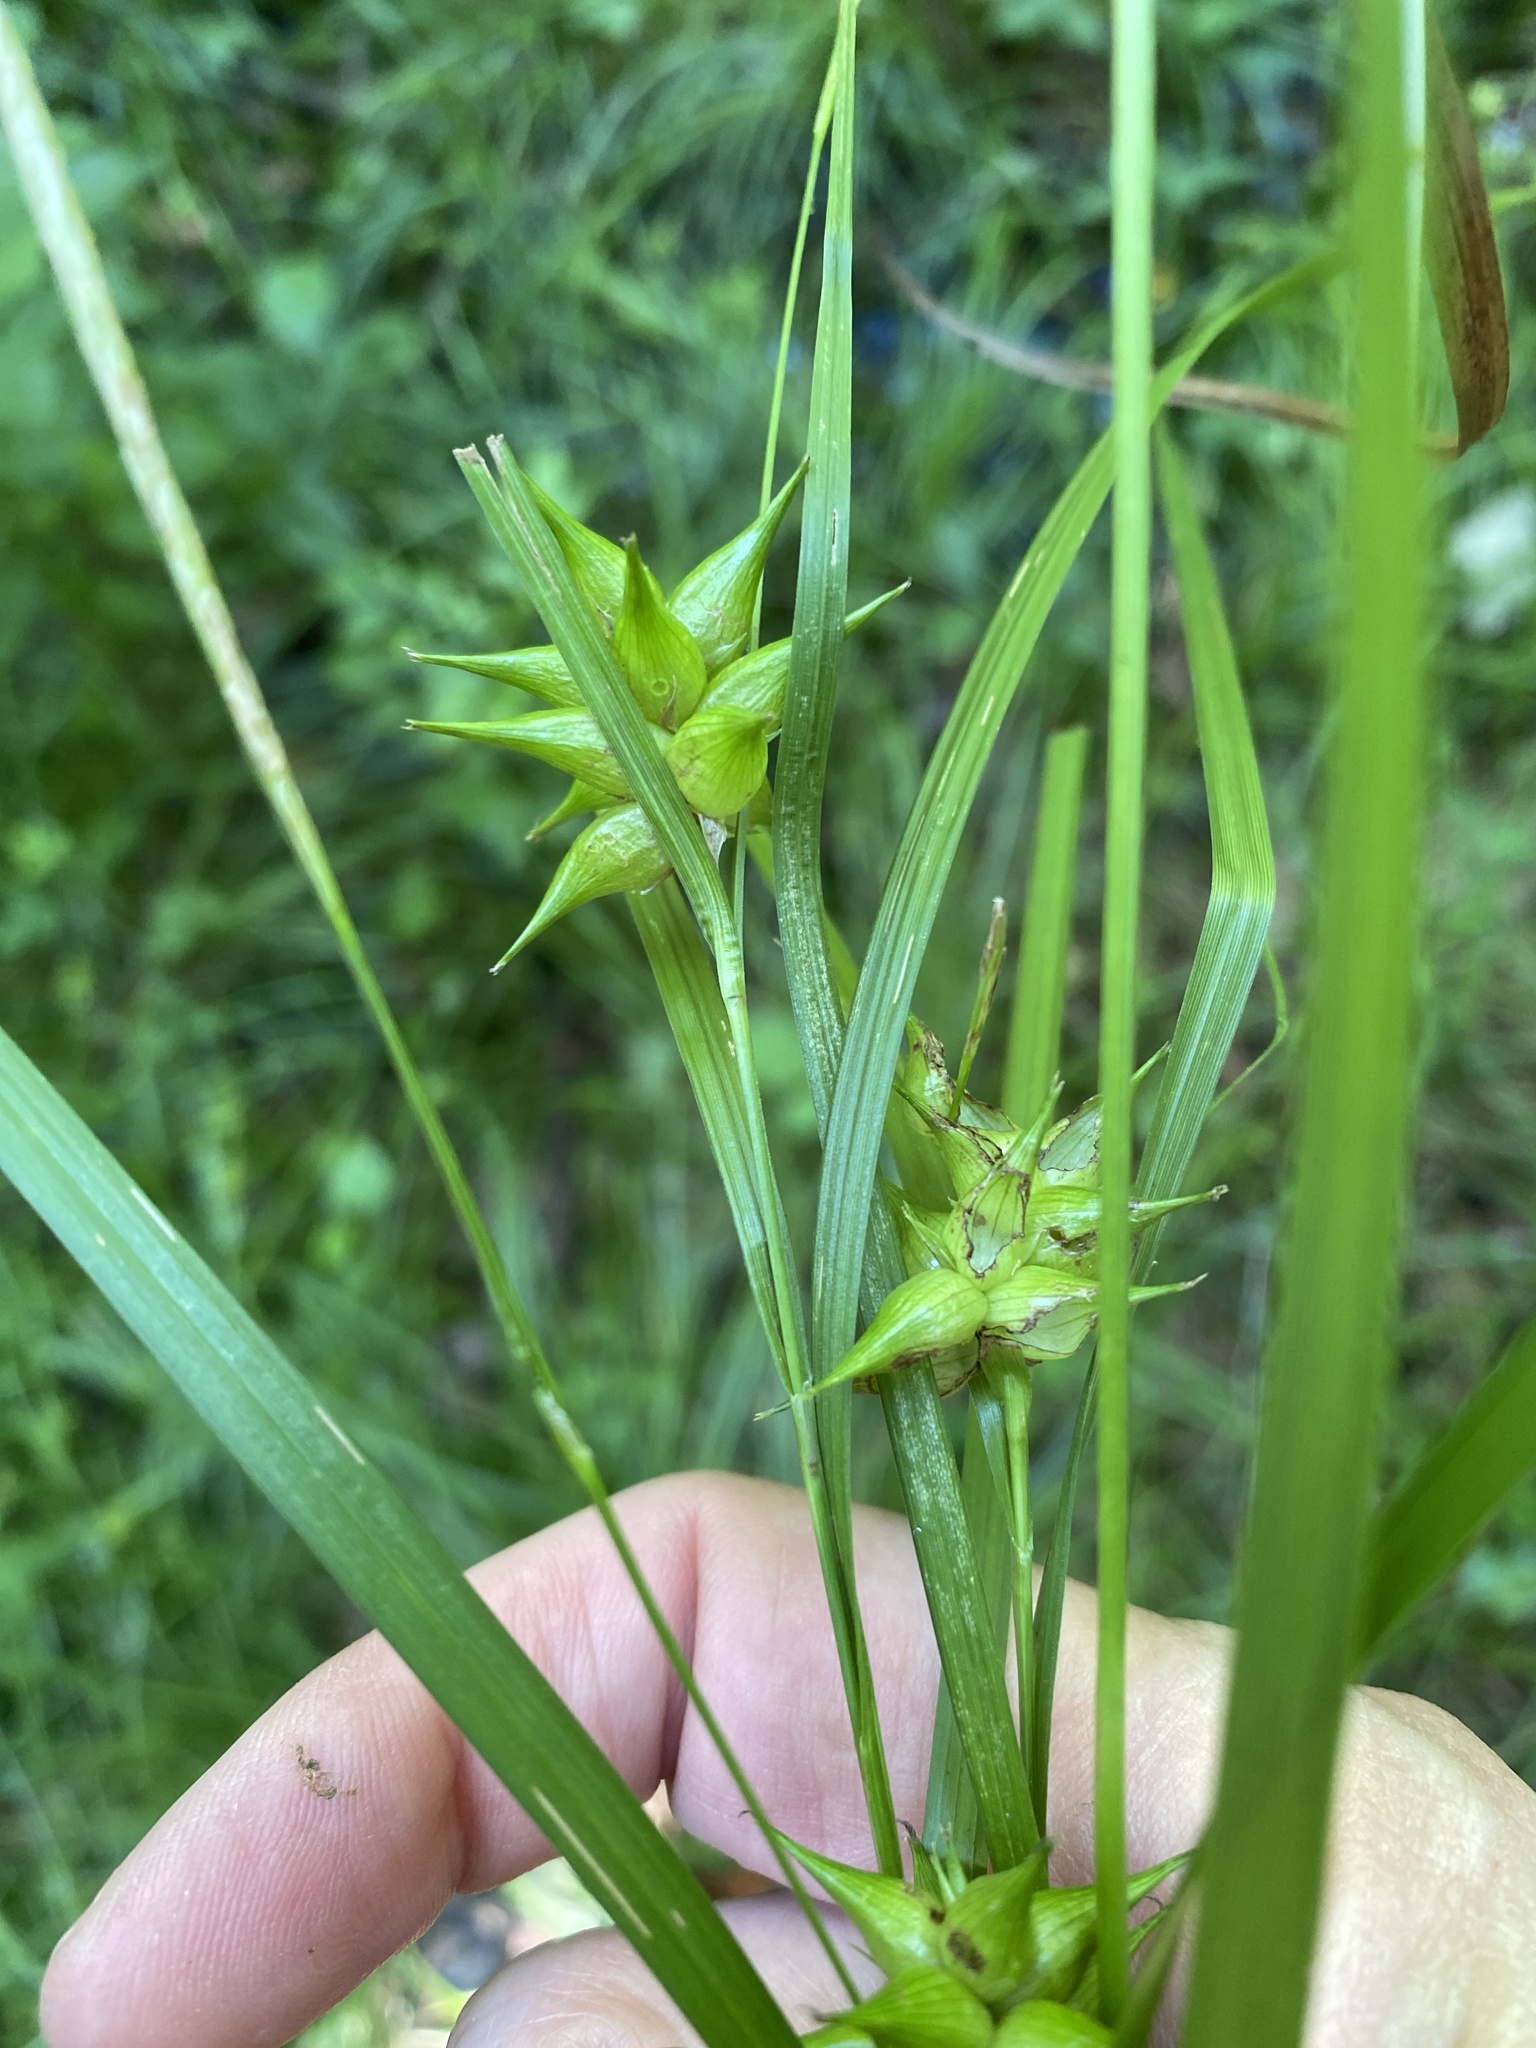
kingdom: Plantae
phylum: Tracheophyta
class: Liliopsida
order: Poales
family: Cyperaceae
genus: Carex
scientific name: Carex intumescens
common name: Greater bladder sedge
